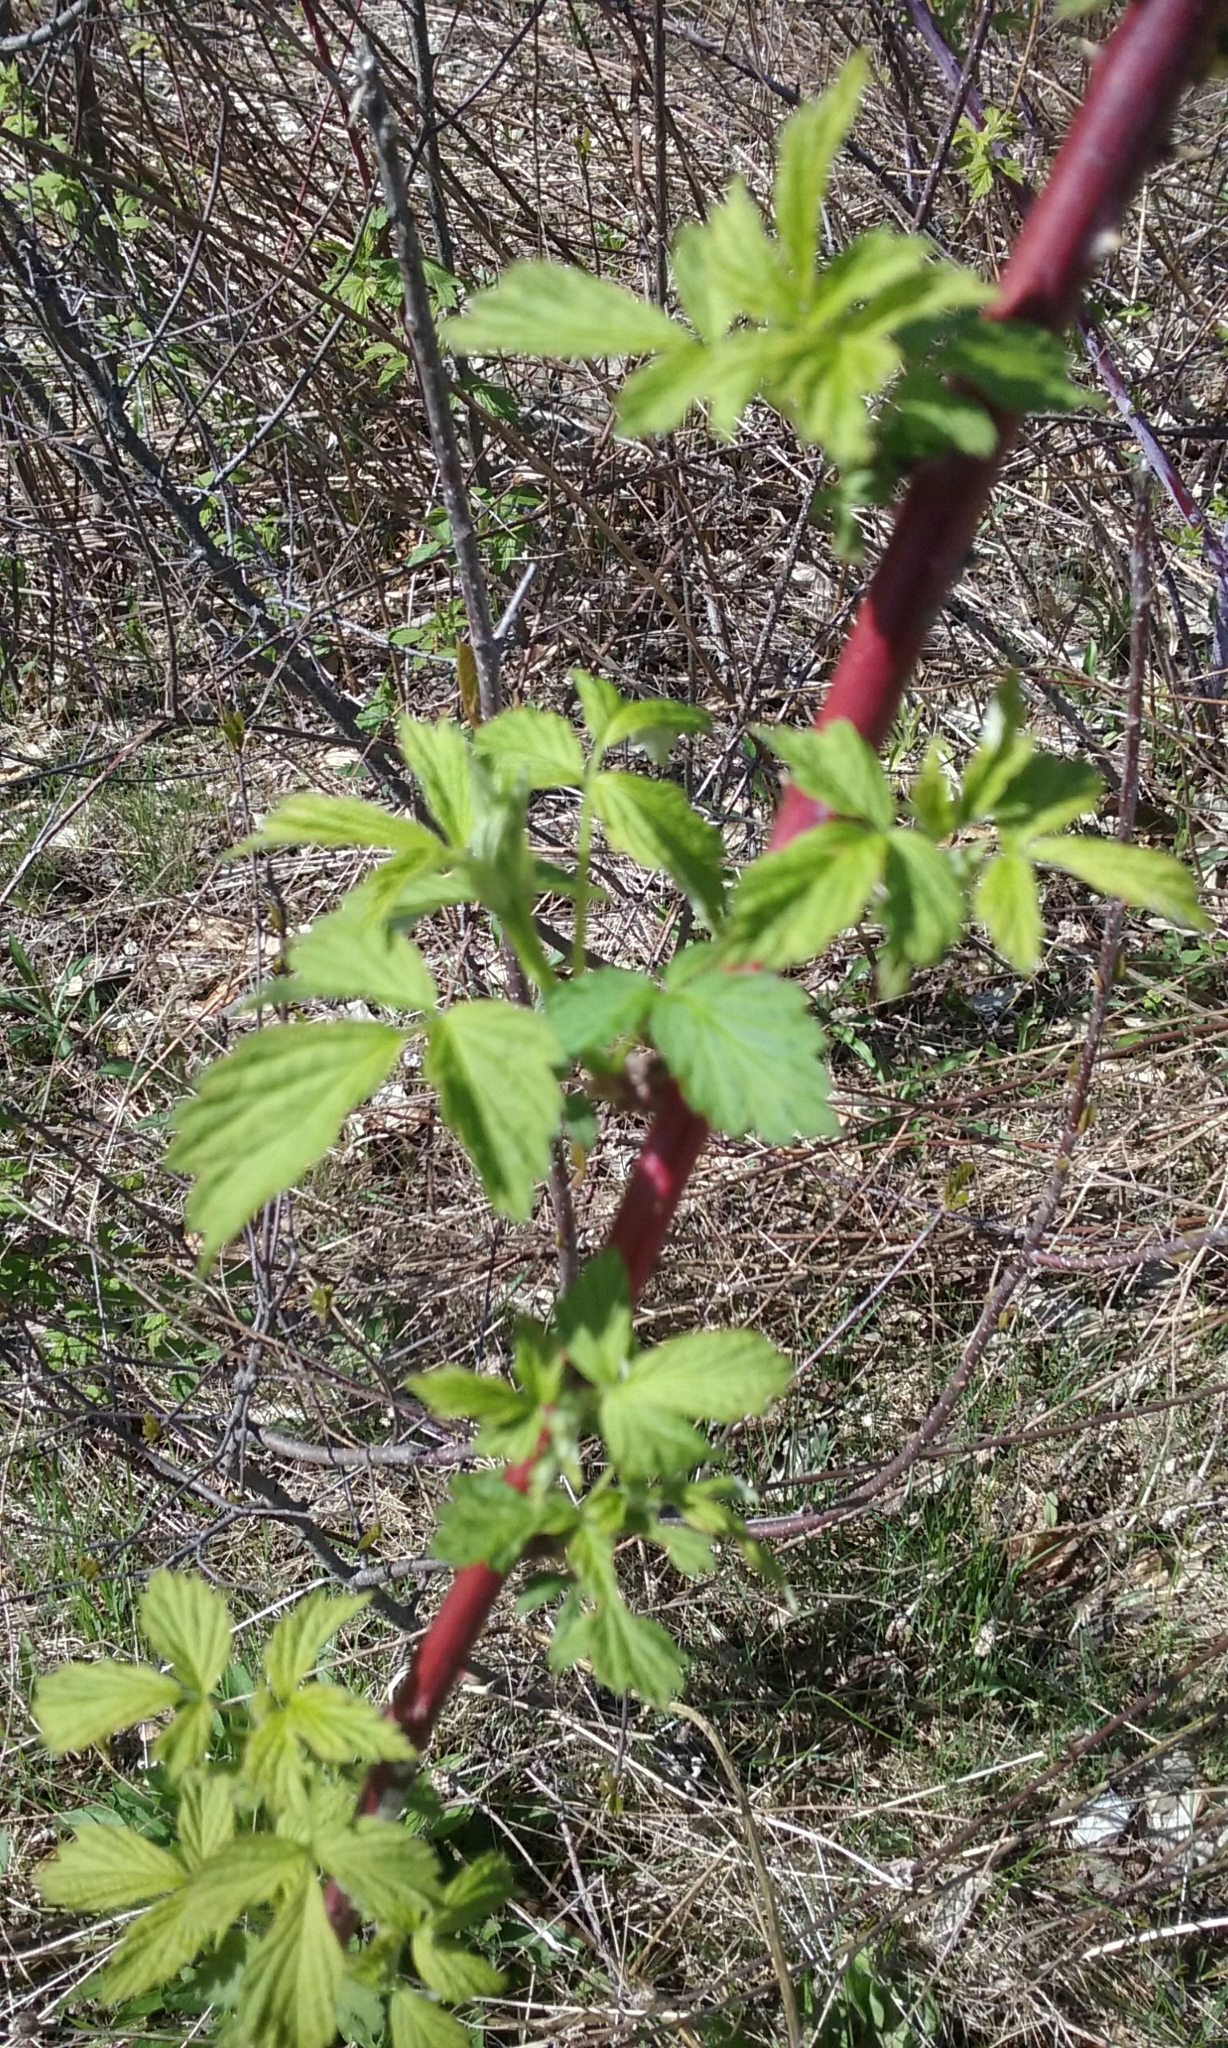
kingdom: Plantae
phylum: Tracheophyta
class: Magnoliopsida
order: Rosales
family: Rosaceae
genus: Rubus
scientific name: Rubus occidentalis
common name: Black raspberry
